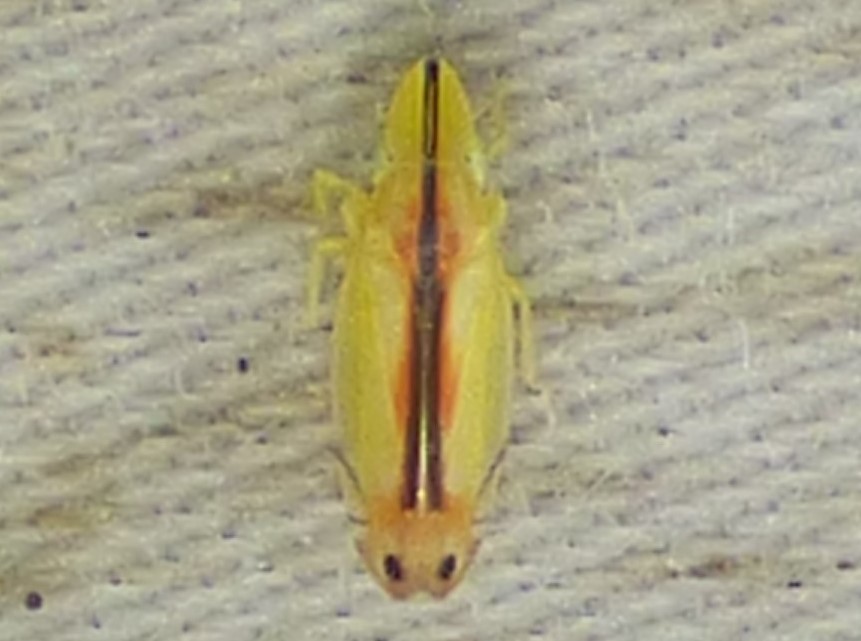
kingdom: Animalia
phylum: Arthropoda
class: Insecta
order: Hemiptera
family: Cicadellidae
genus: Sophonia
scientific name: Sophonia orientalis
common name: Two-spotted leafhopper
